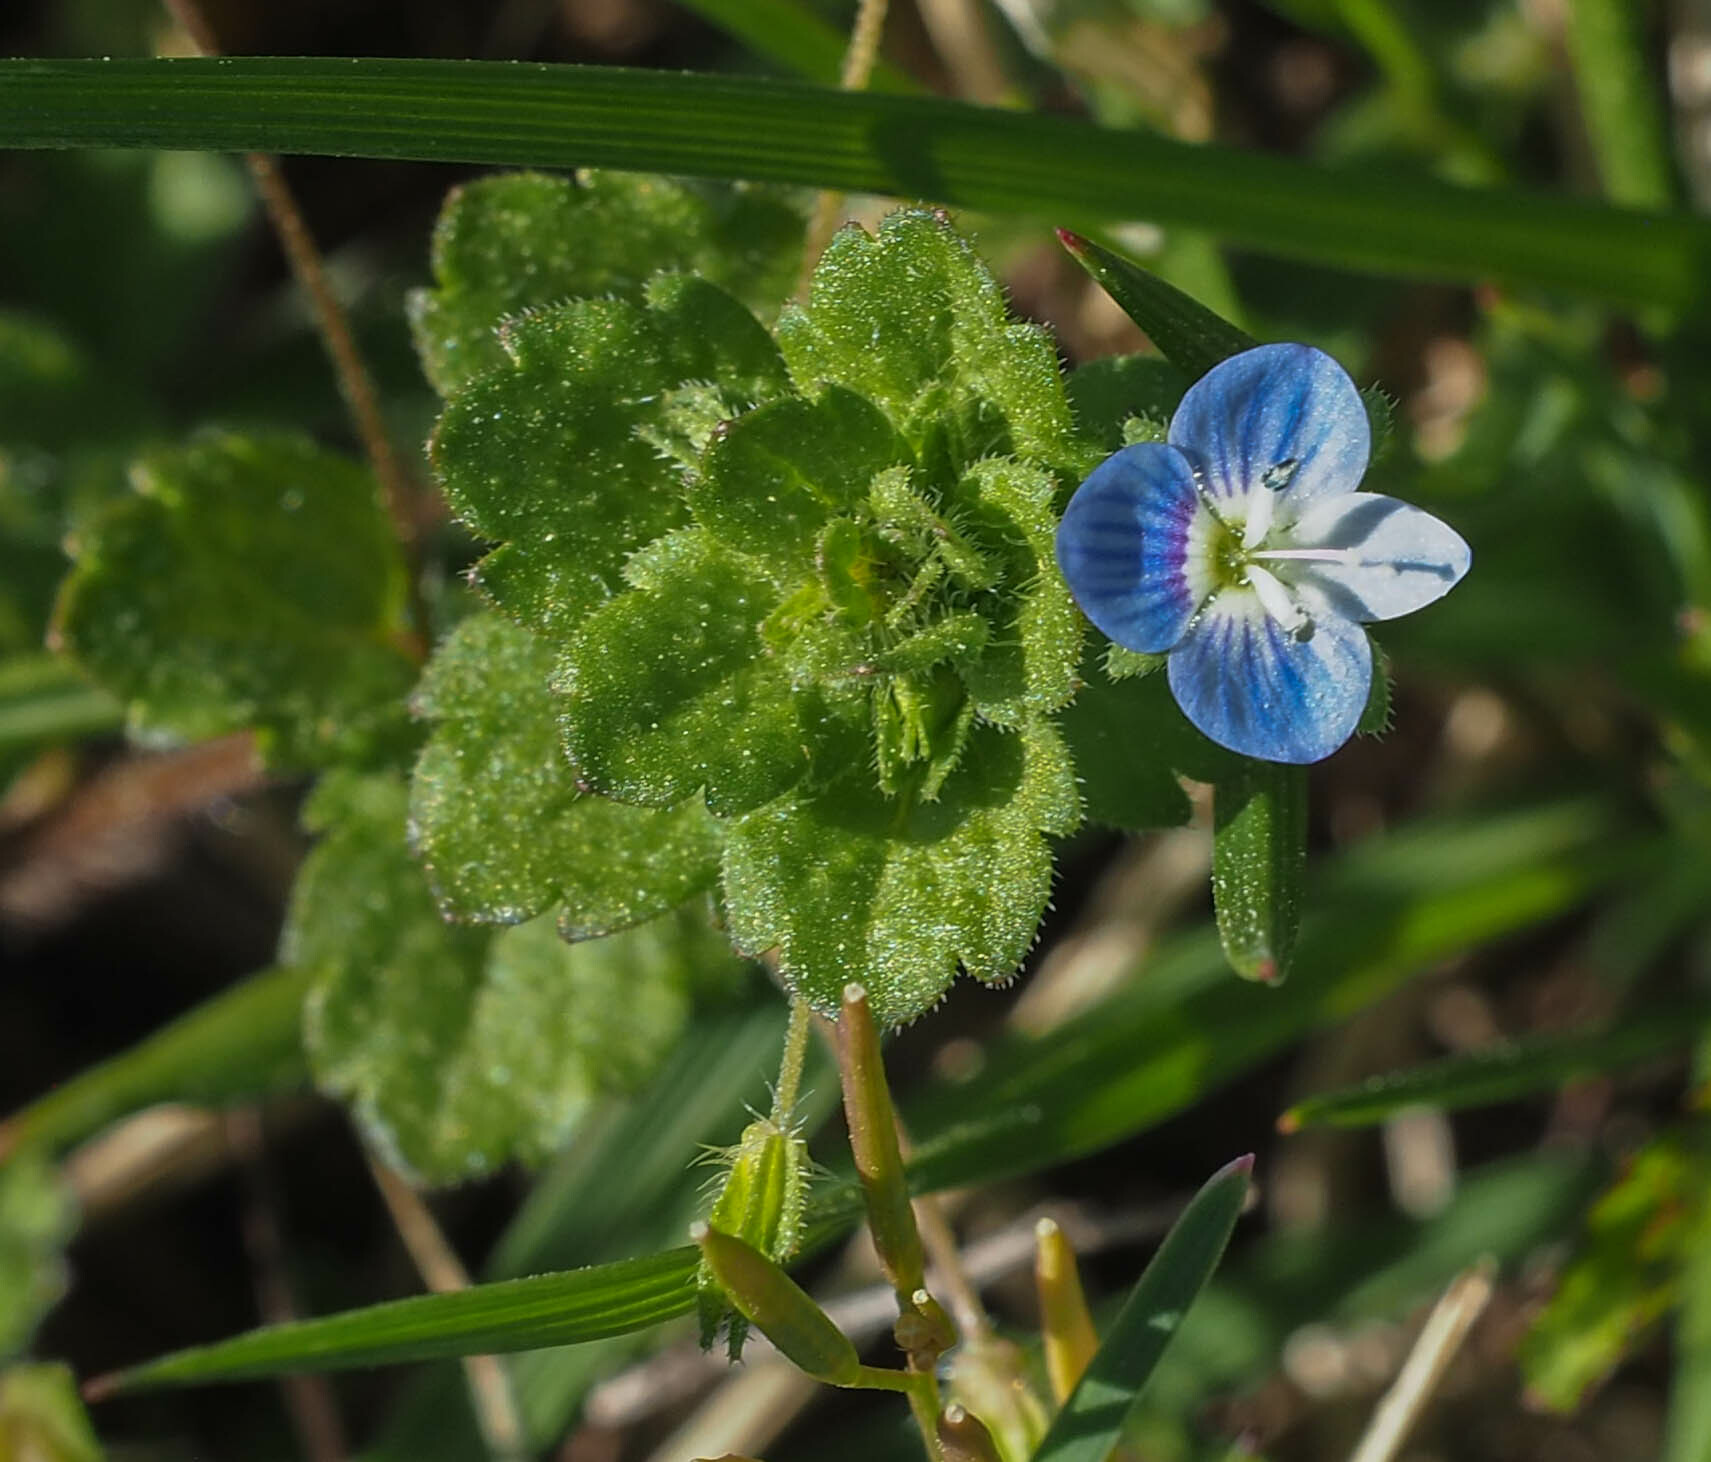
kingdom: Plantae
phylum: Tracheophyta
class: Magnoliopsida
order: Lamiales
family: Plantaginaceae
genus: Veronica
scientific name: Veronica persica
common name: Common field-speedwell
